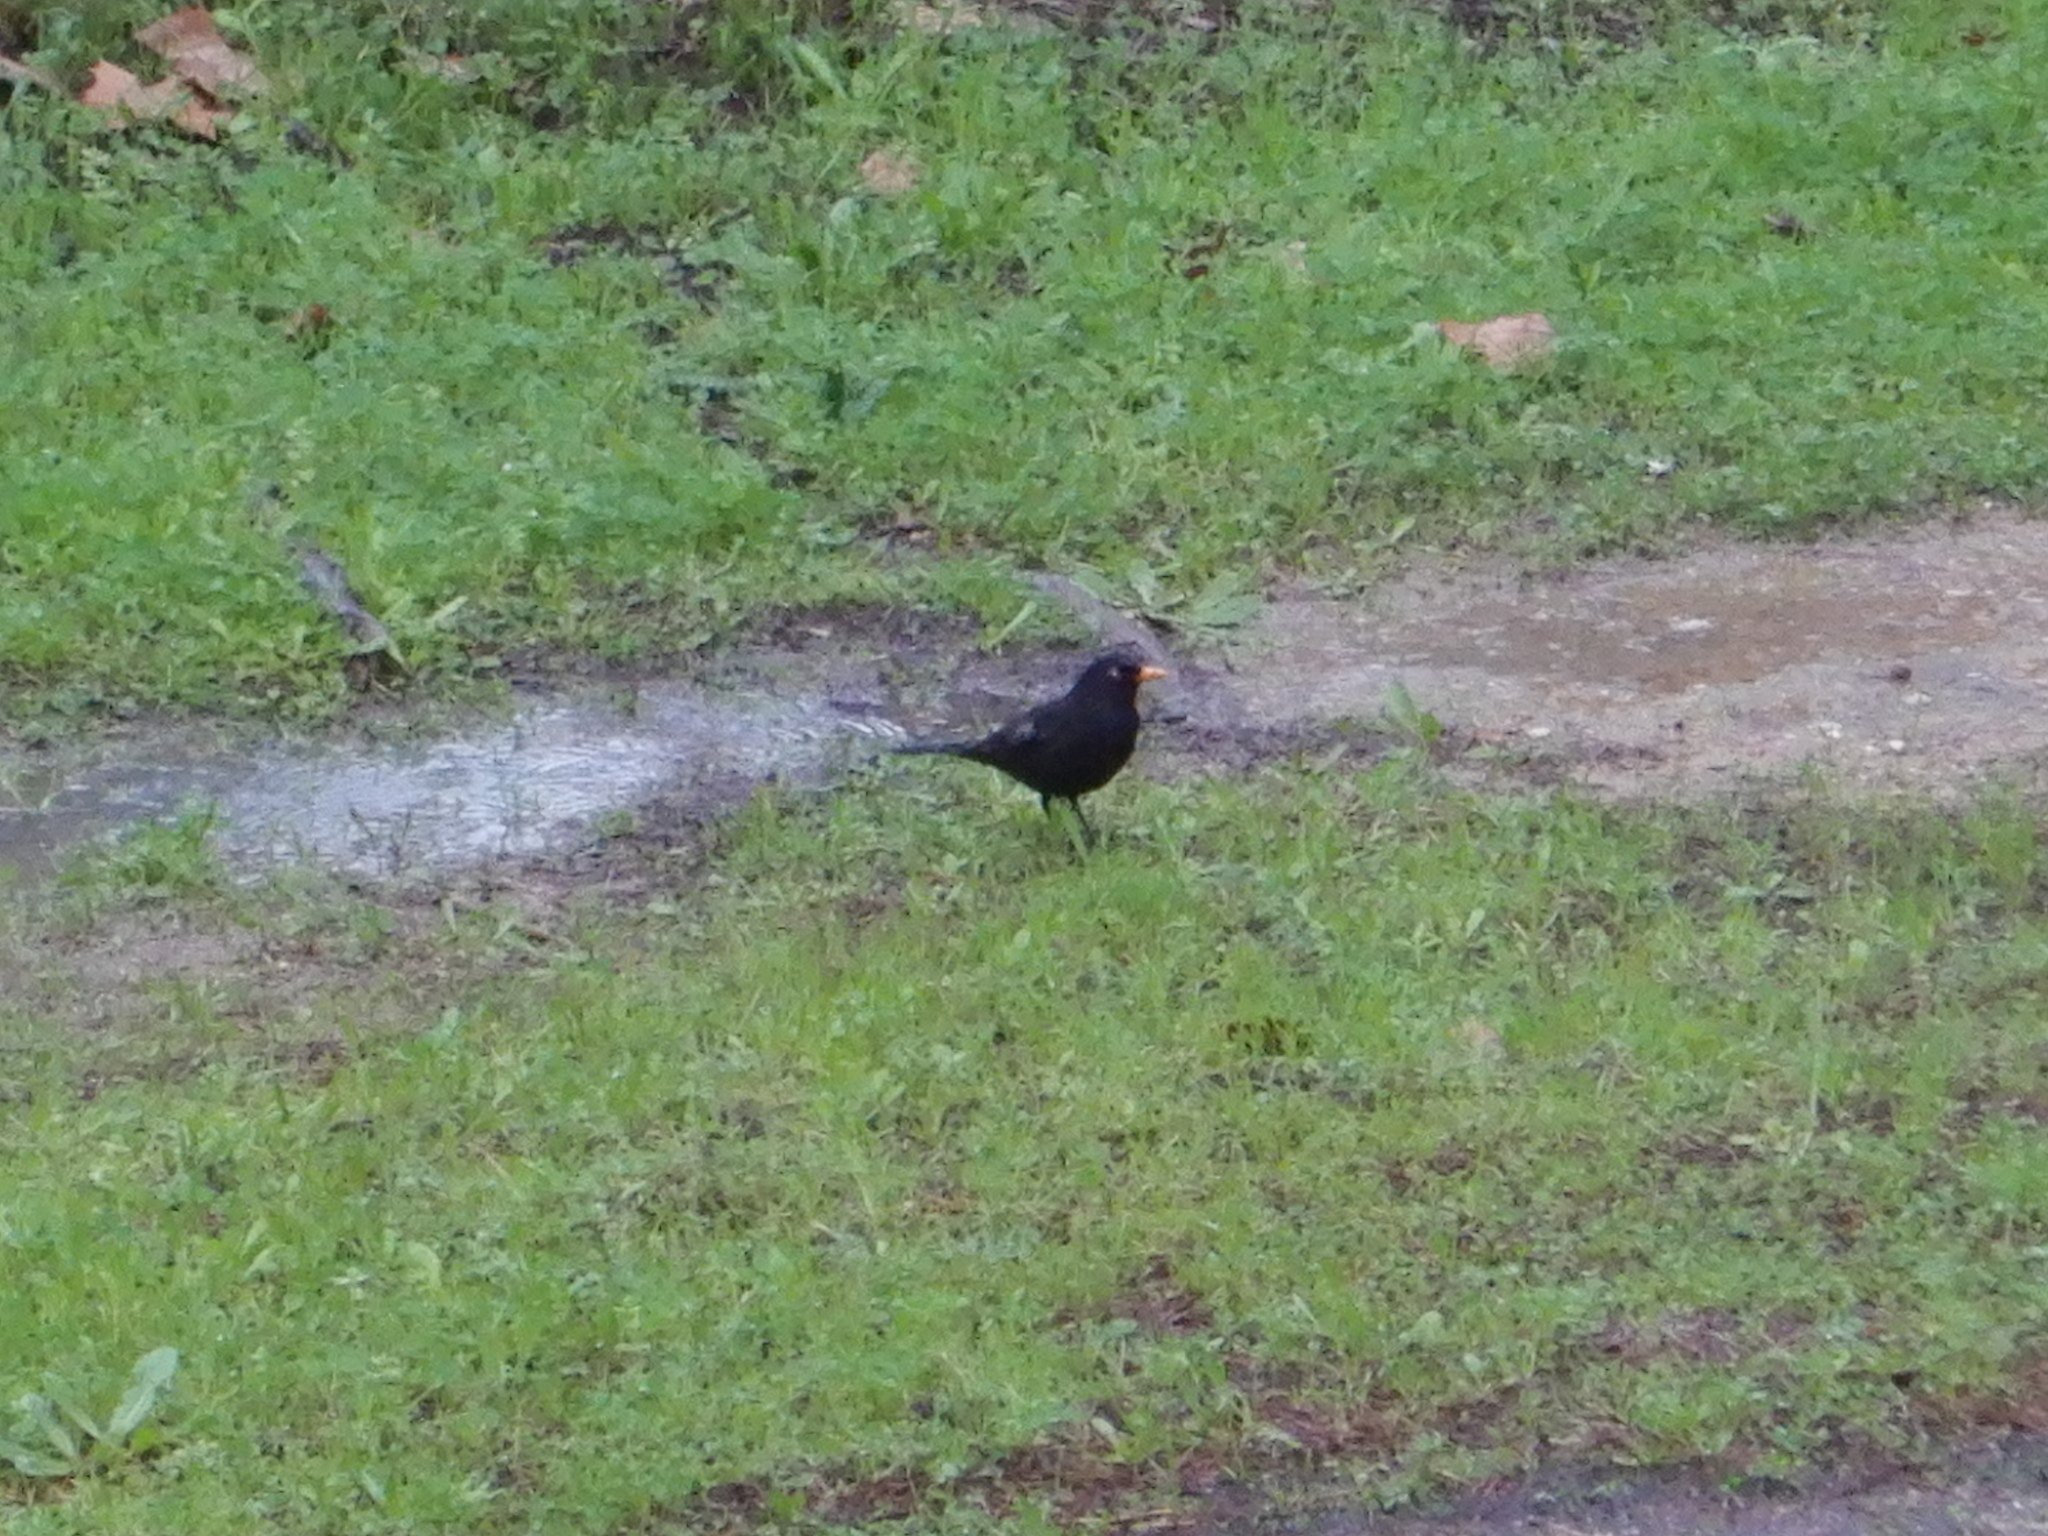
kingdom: Animalia
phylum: Chordata
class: Aves
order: Passeriformes
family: Turdidae
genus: Turdus
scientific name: Turdus merula
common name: Common blackbird
